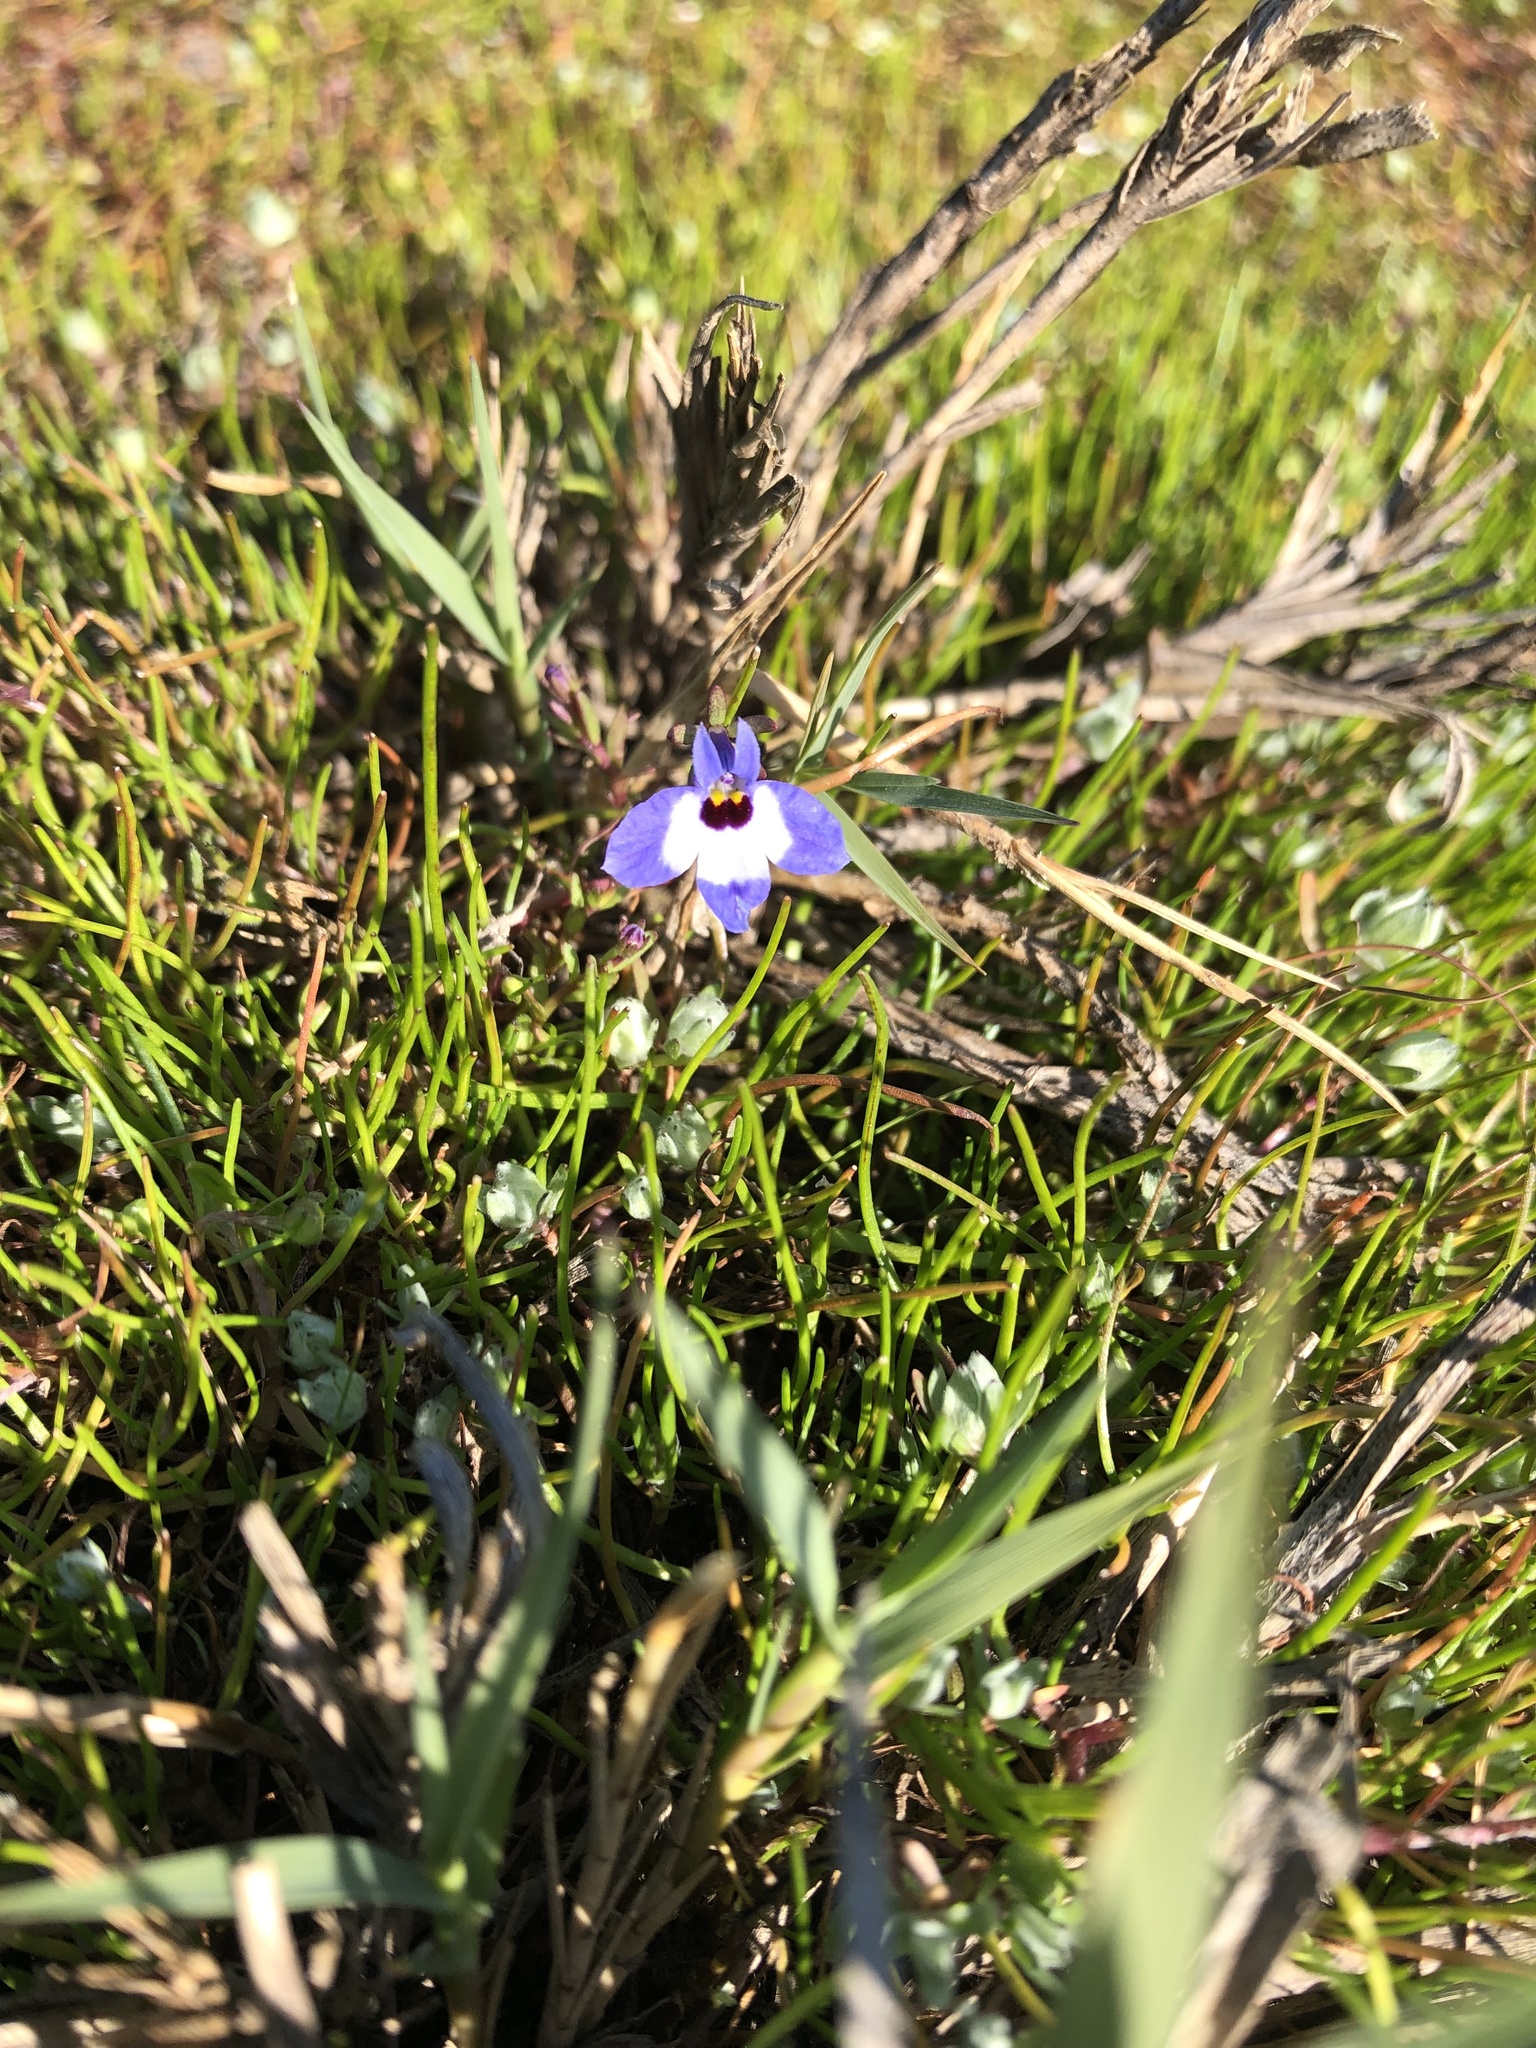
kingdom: Plantae
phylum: Tracheophyta
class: Magnoliopsida
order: Asterales
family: Campanulaceae
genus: Downingia
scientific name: Downingia concolor
